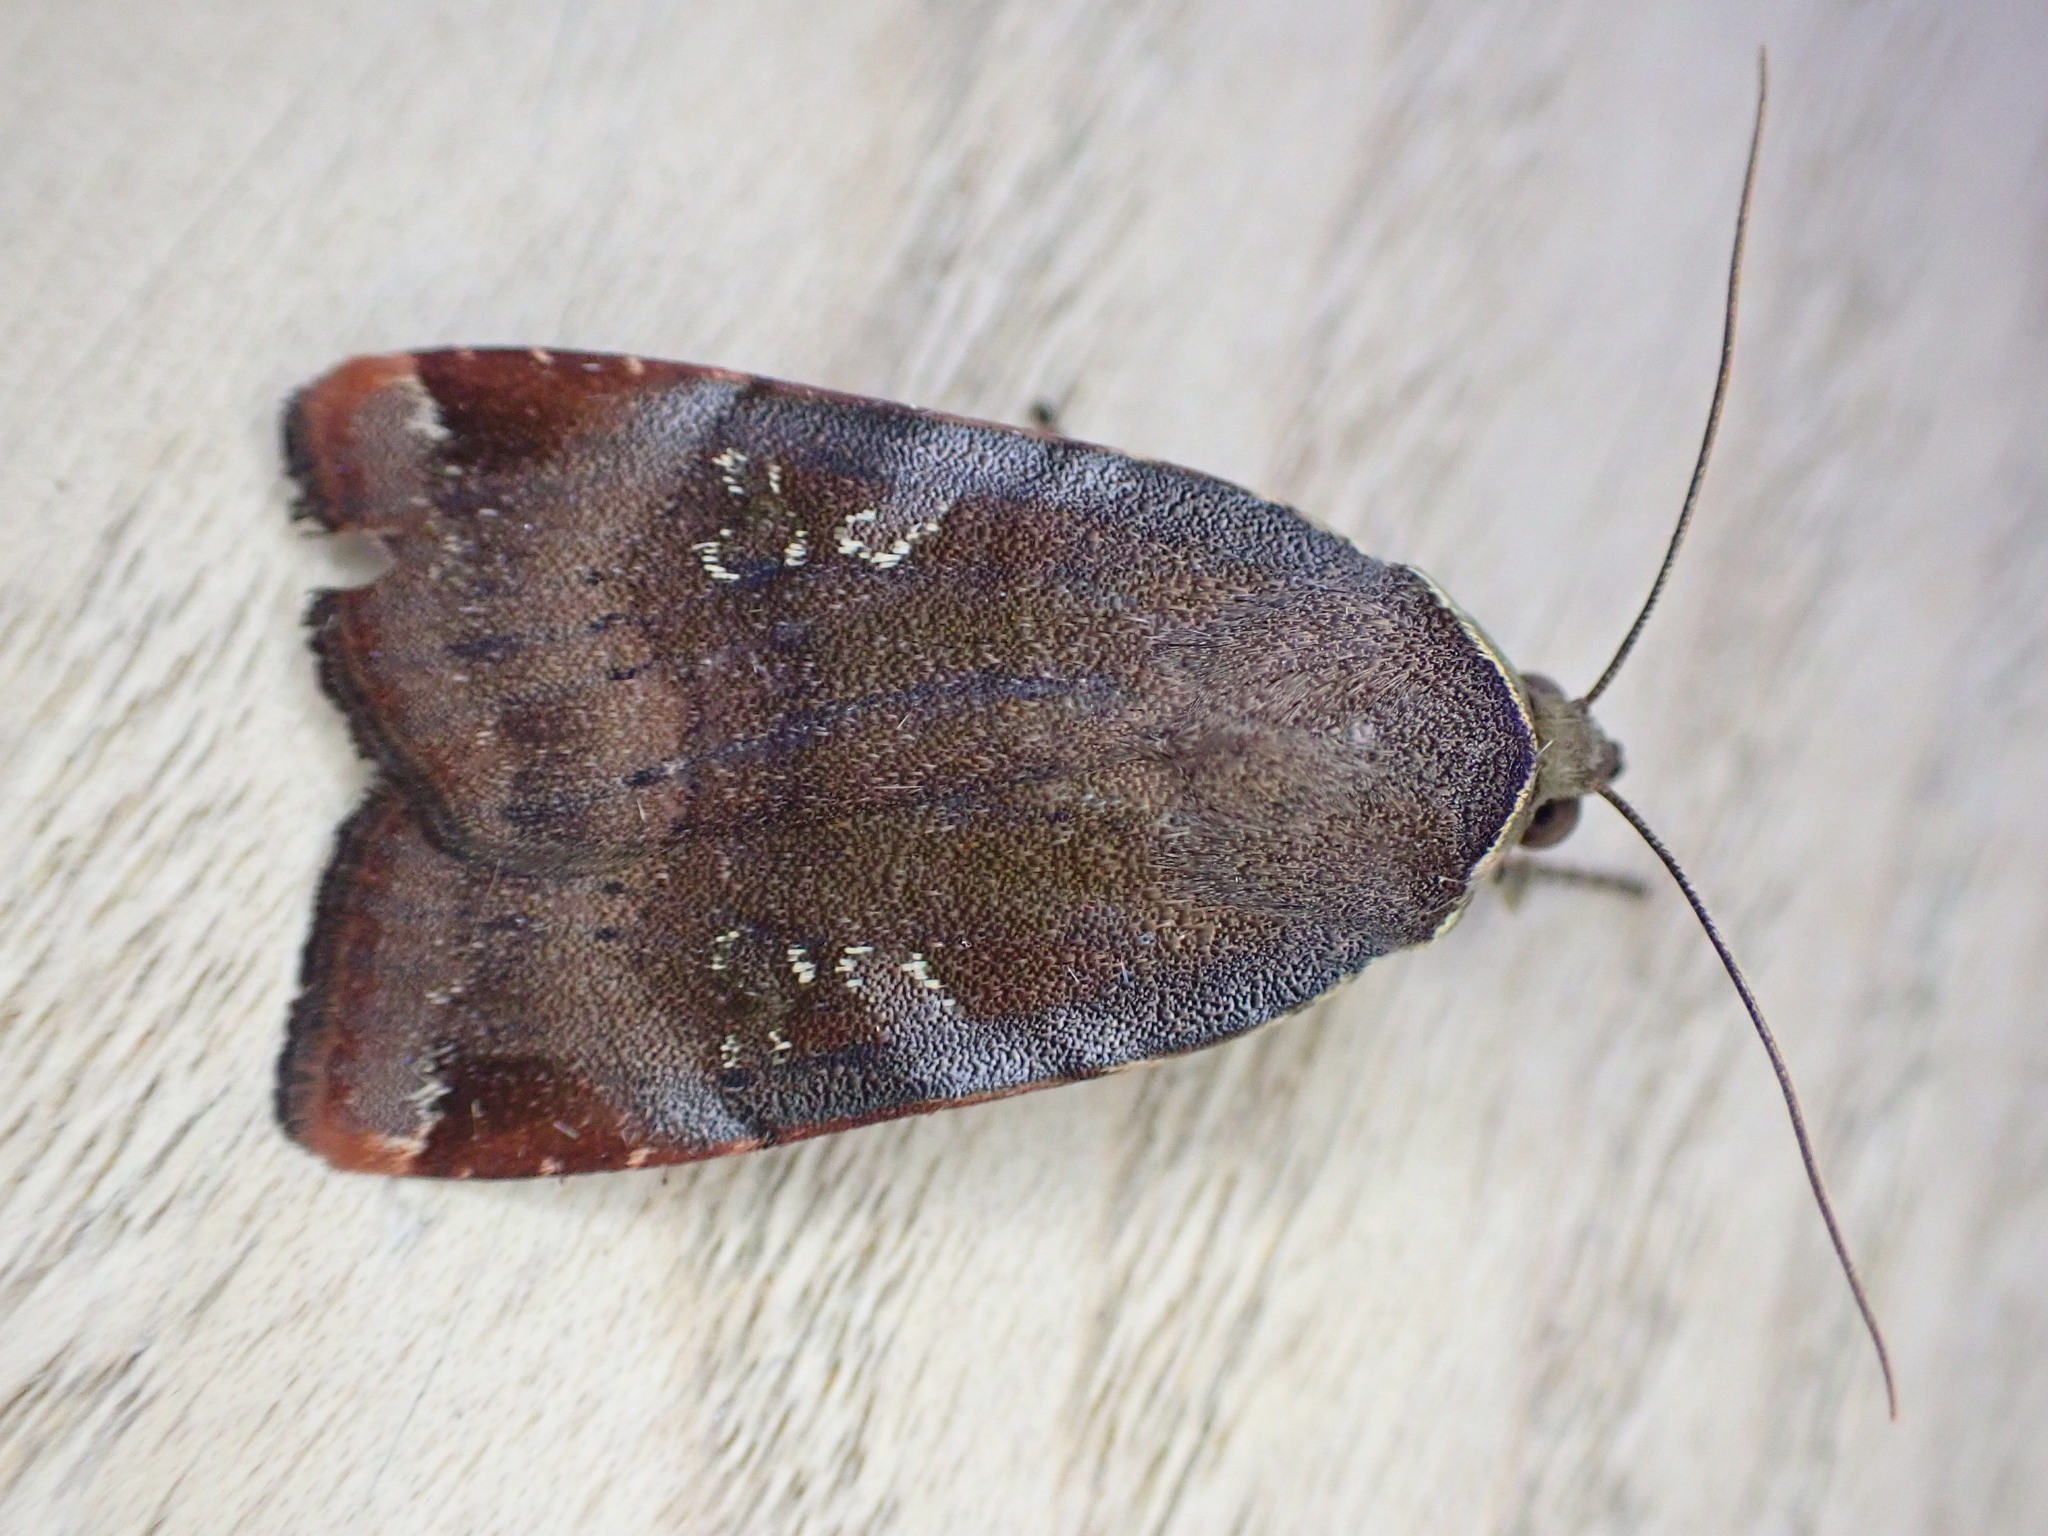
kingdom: Animalia
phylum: Arthropoda
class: Insecta
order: Lepidoptera
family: Noctuidae
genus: Noctua
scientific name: Noctua janthe
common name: Lesser broad-bordered yellow underwing
